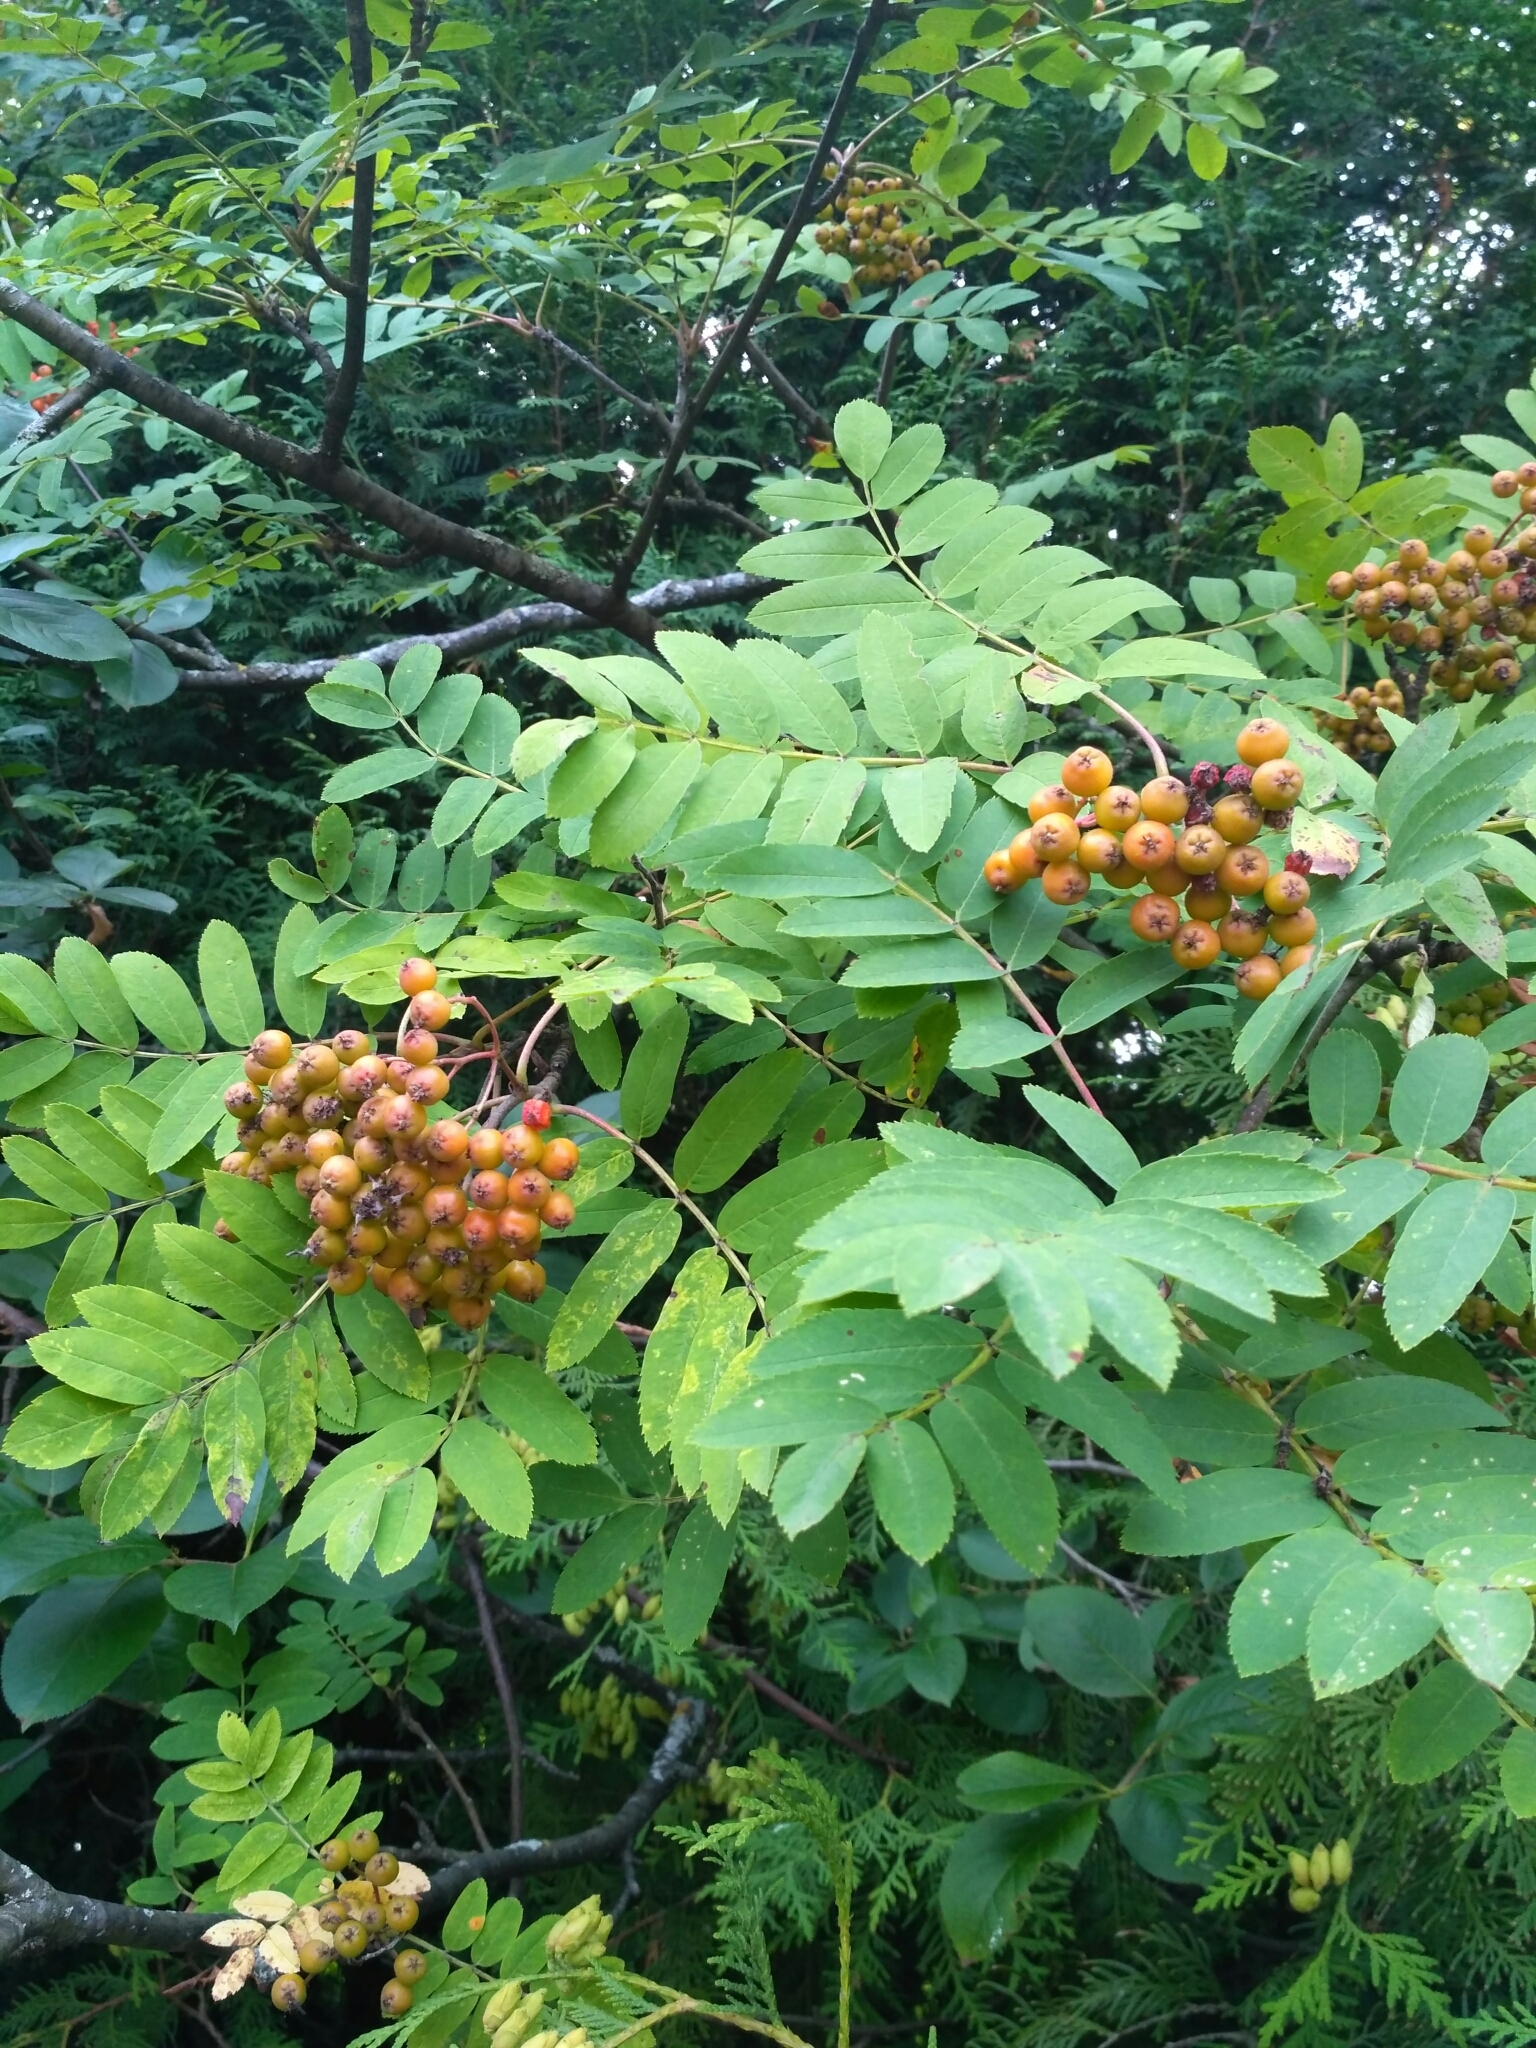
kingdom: Plantae
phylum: Tracheophyta
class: Magnoliopsida
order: Rosales
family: Rosaceae
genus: Sorbus
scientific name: Sorbus aucuparia
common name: Rowan
